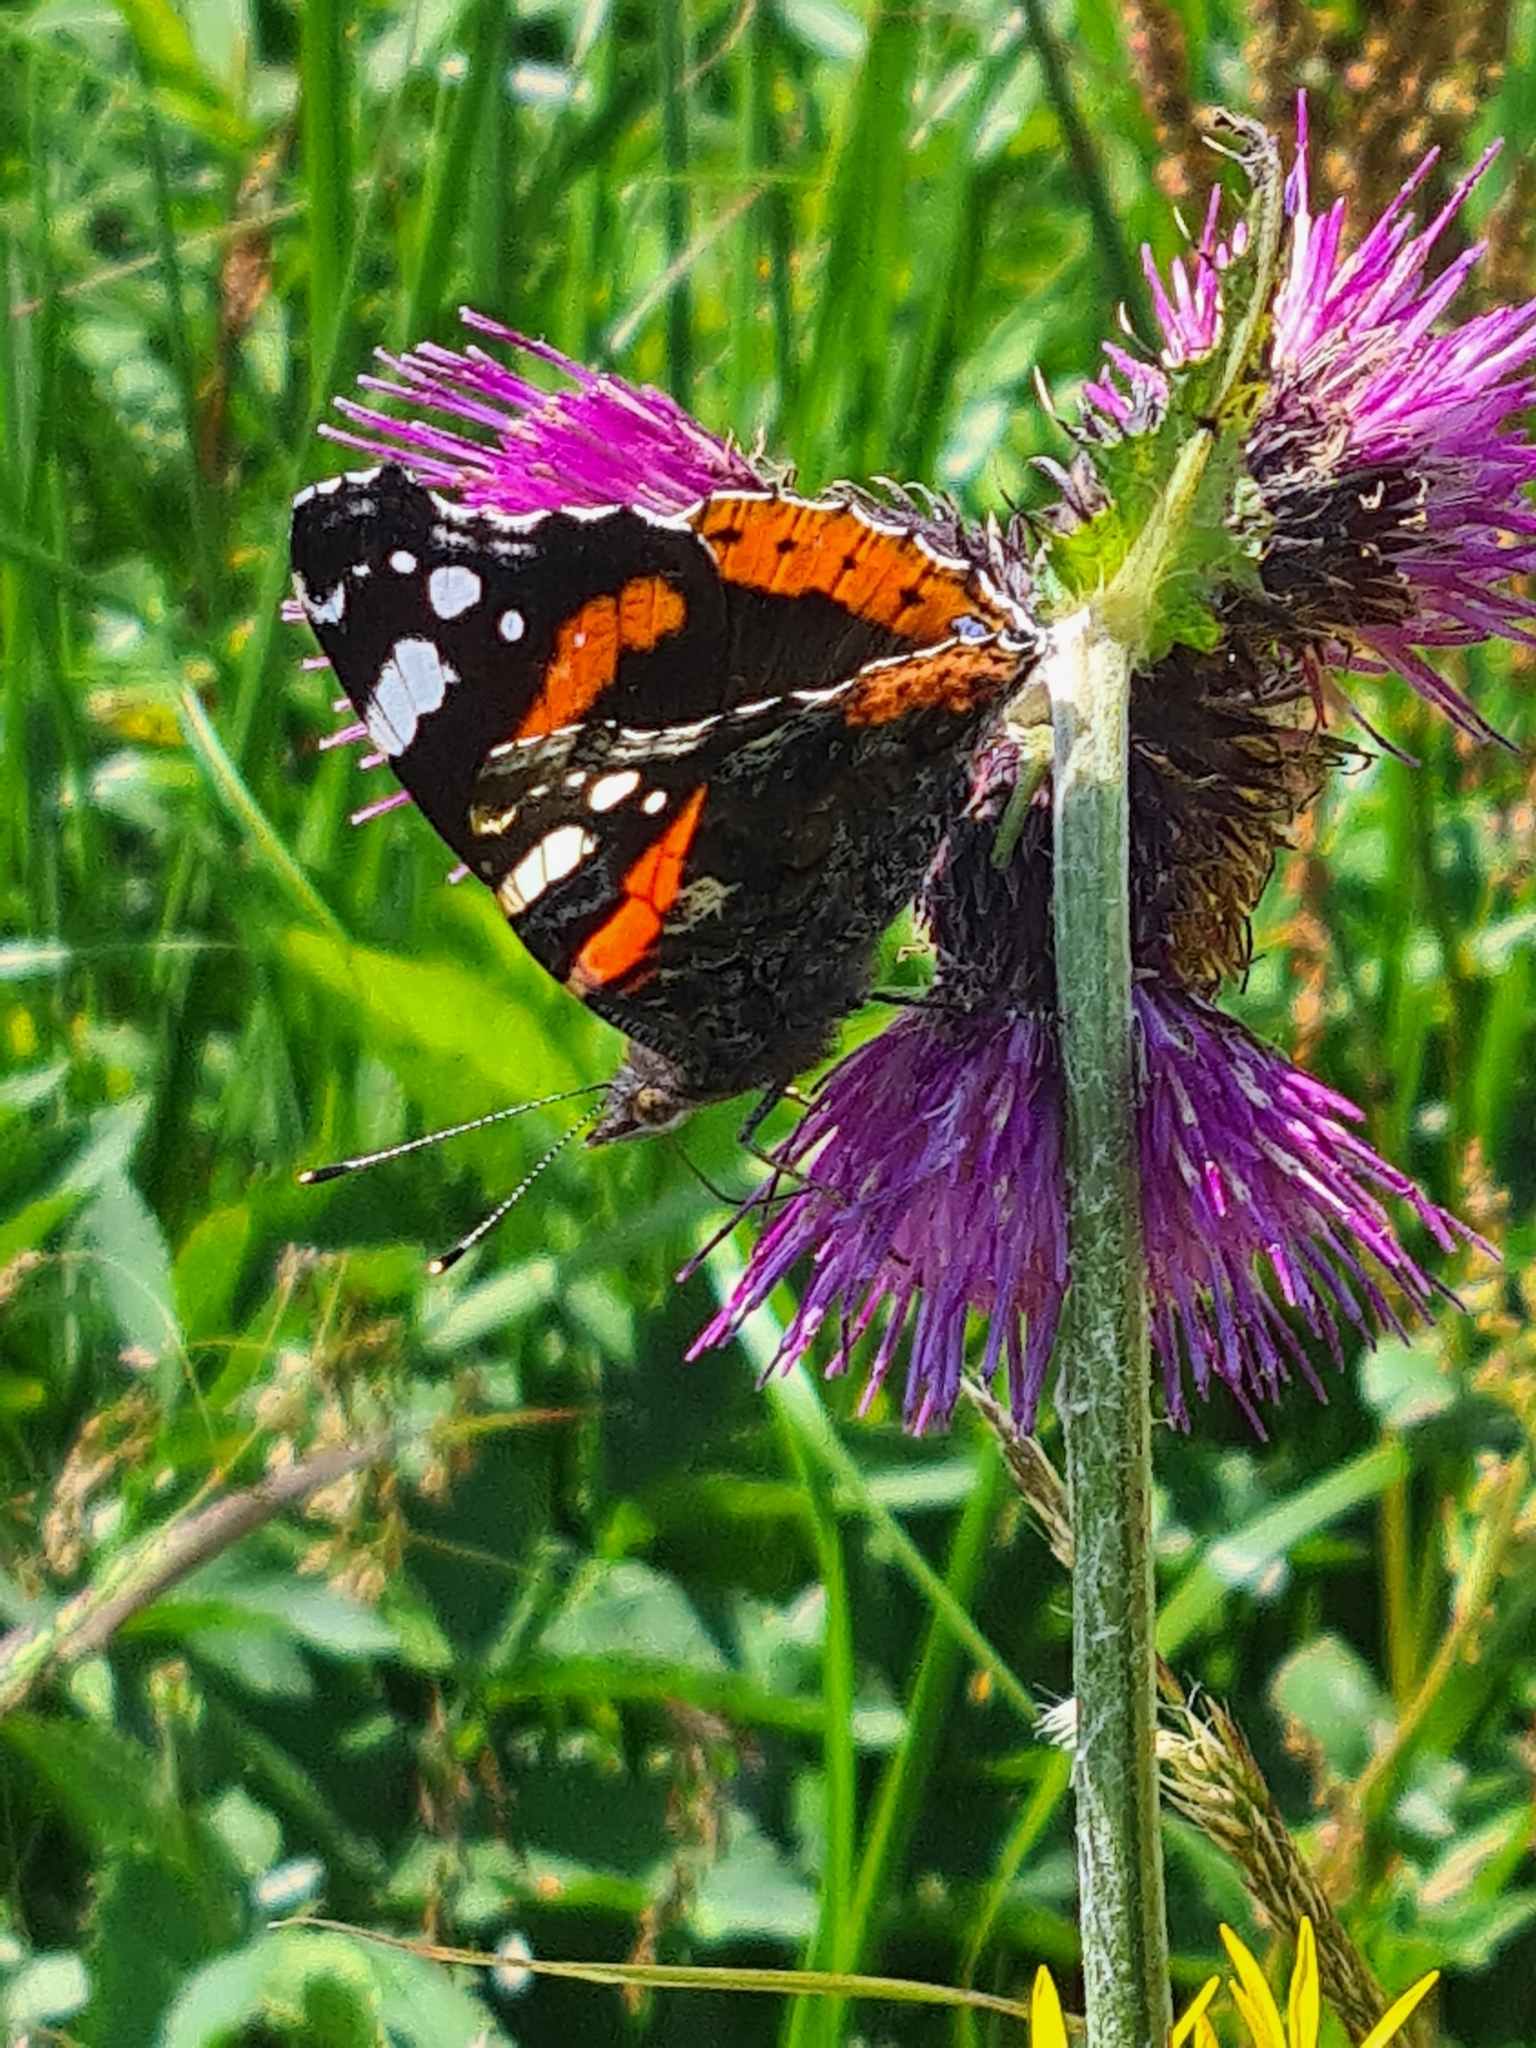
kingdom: Animalia
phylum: Arthropoda
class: Insecta
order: Lepidoptera
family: Nymphalidae
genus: Vanessa
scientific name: Vanessa atalanta
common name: Red admiral
